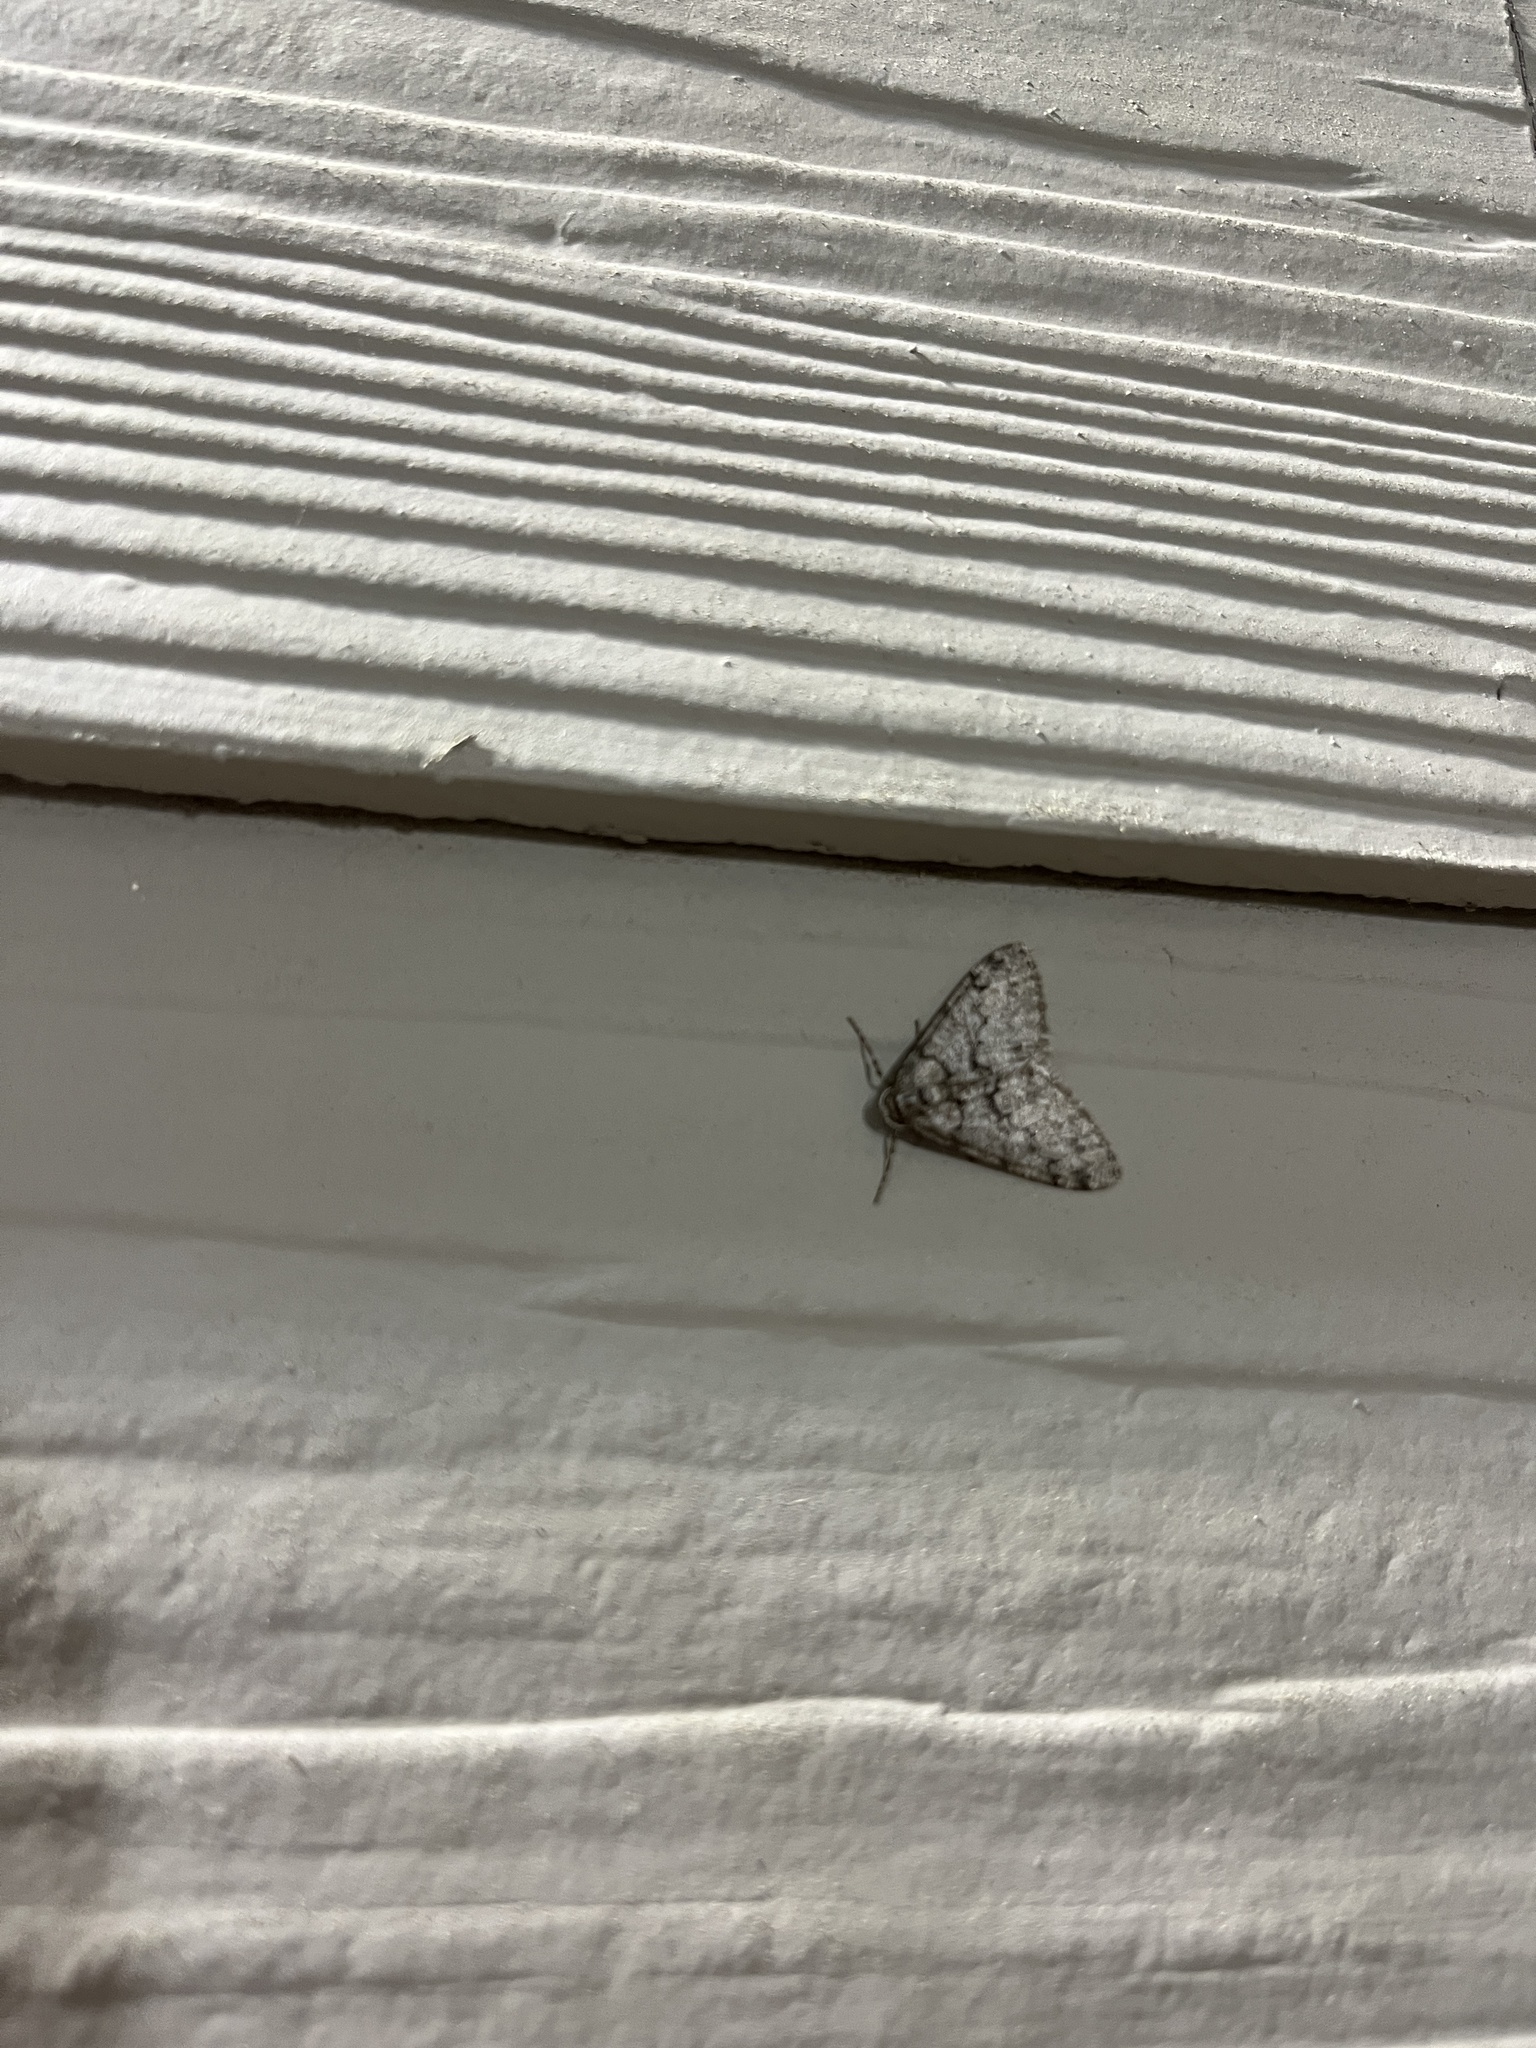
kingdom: Animalia
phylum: Arthropoda
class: Insecta
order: Lepidoptera
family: Geometridae
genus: Phigalia
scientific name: Phigalia denticulata
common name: Toothed phigalia
